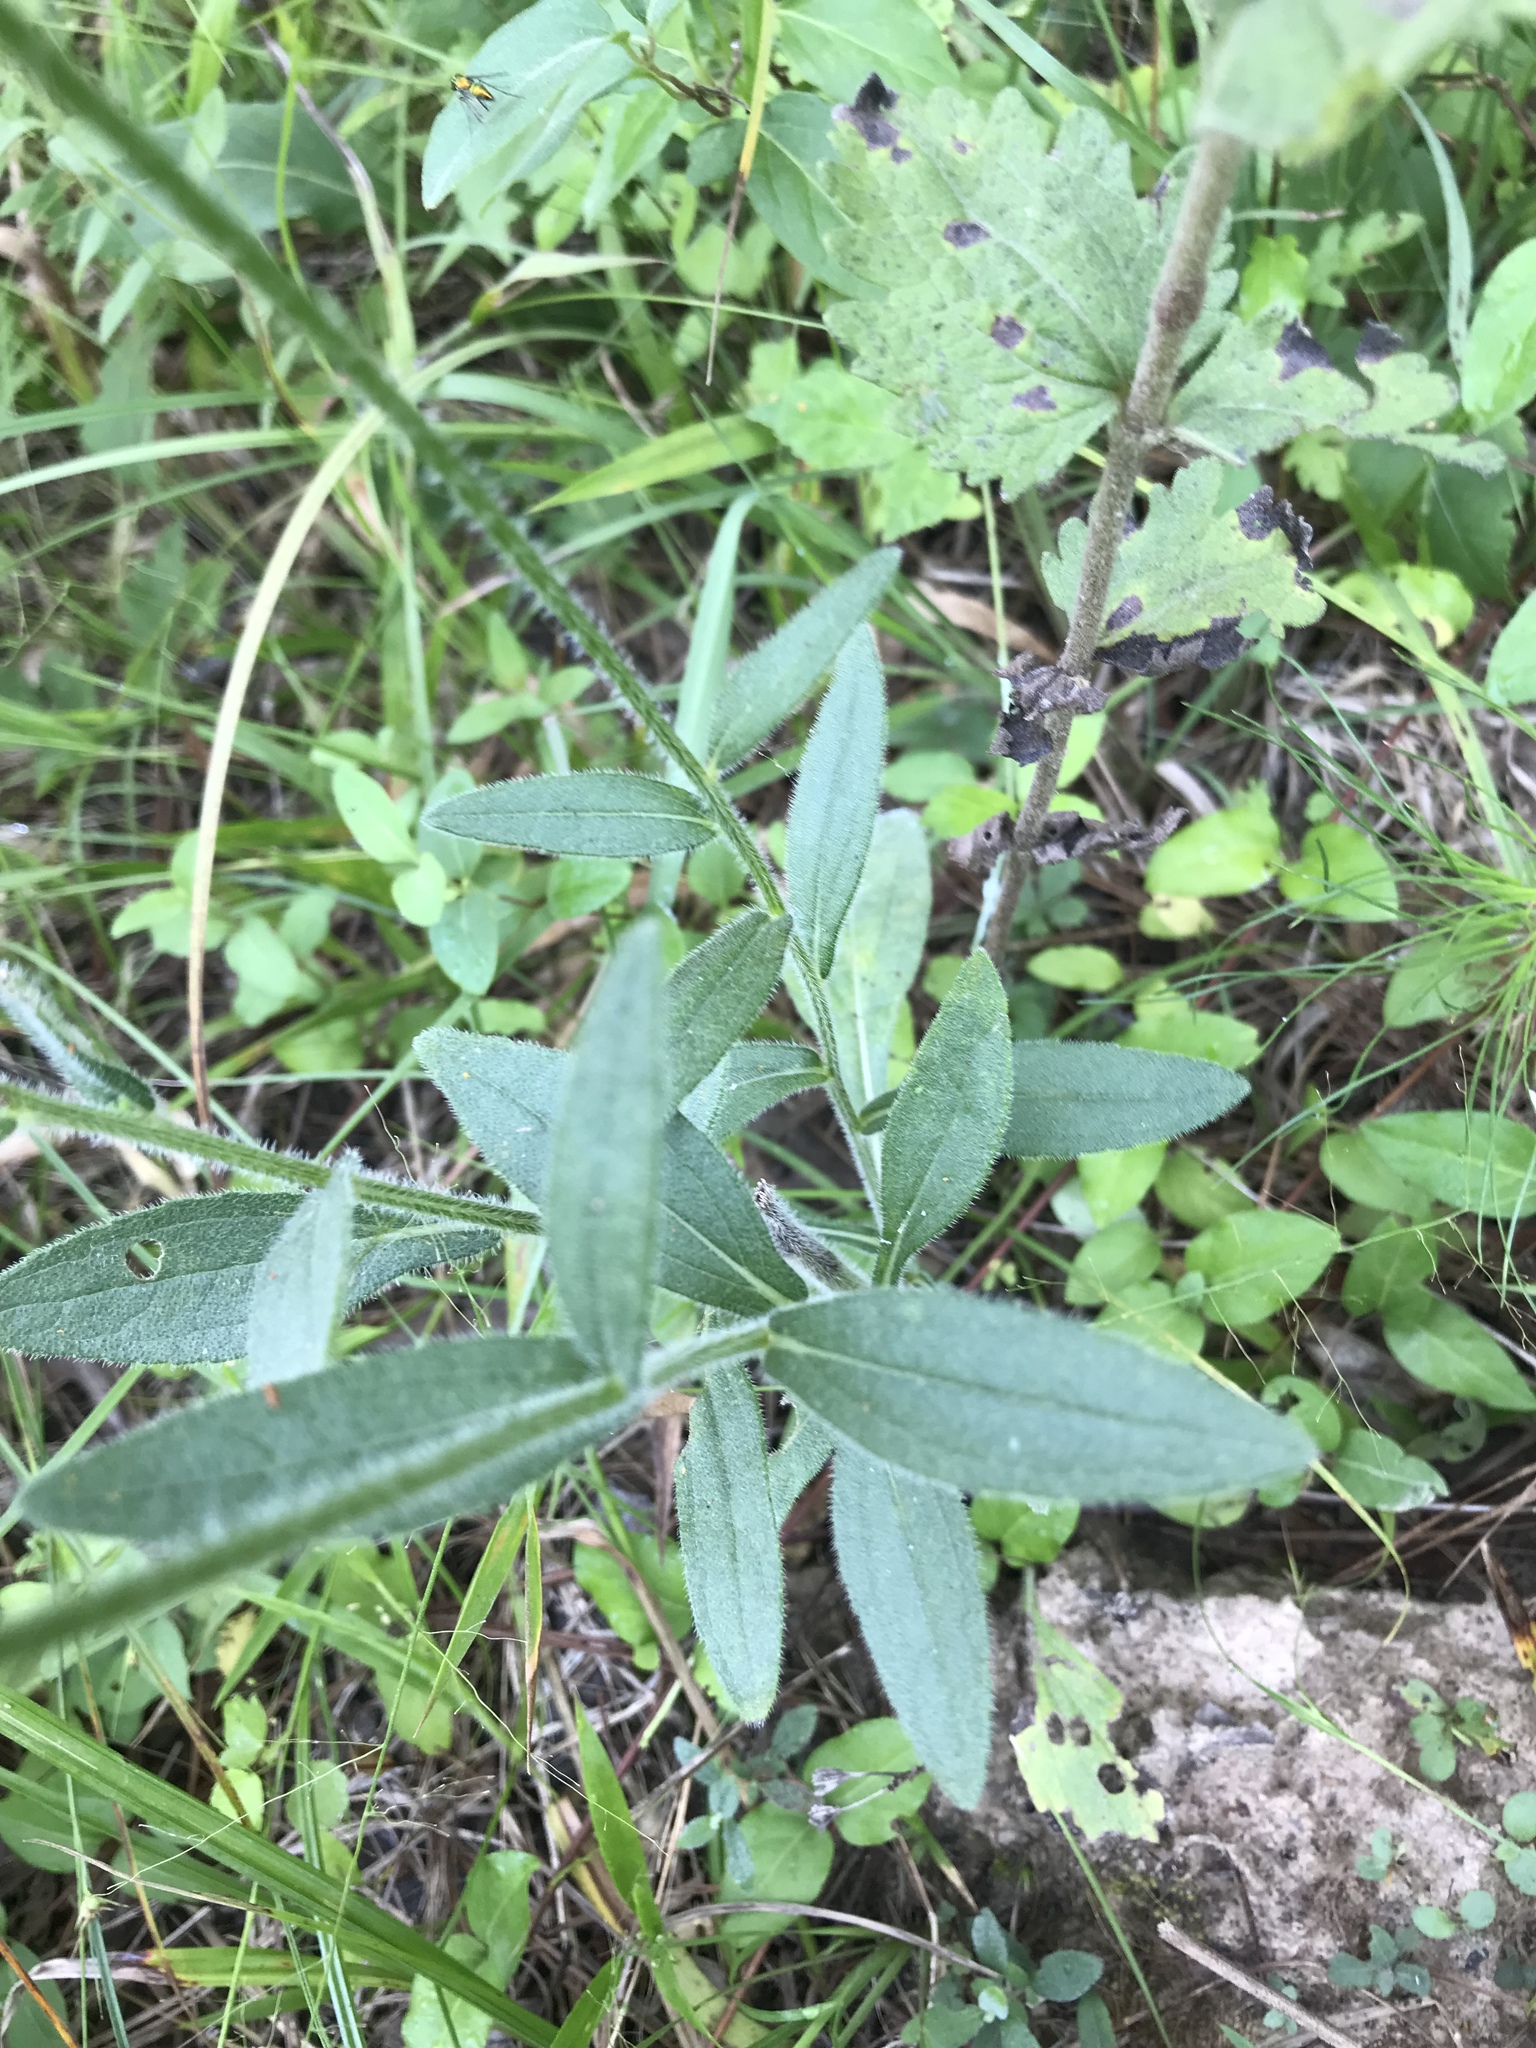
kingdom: Plantae
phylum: Tracheophyta
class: Magnoliopsida
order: Asterales
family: Asteraceae
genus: Rudbeckia
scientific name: Rudbeckia hirta
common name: Black-eyed-susan
